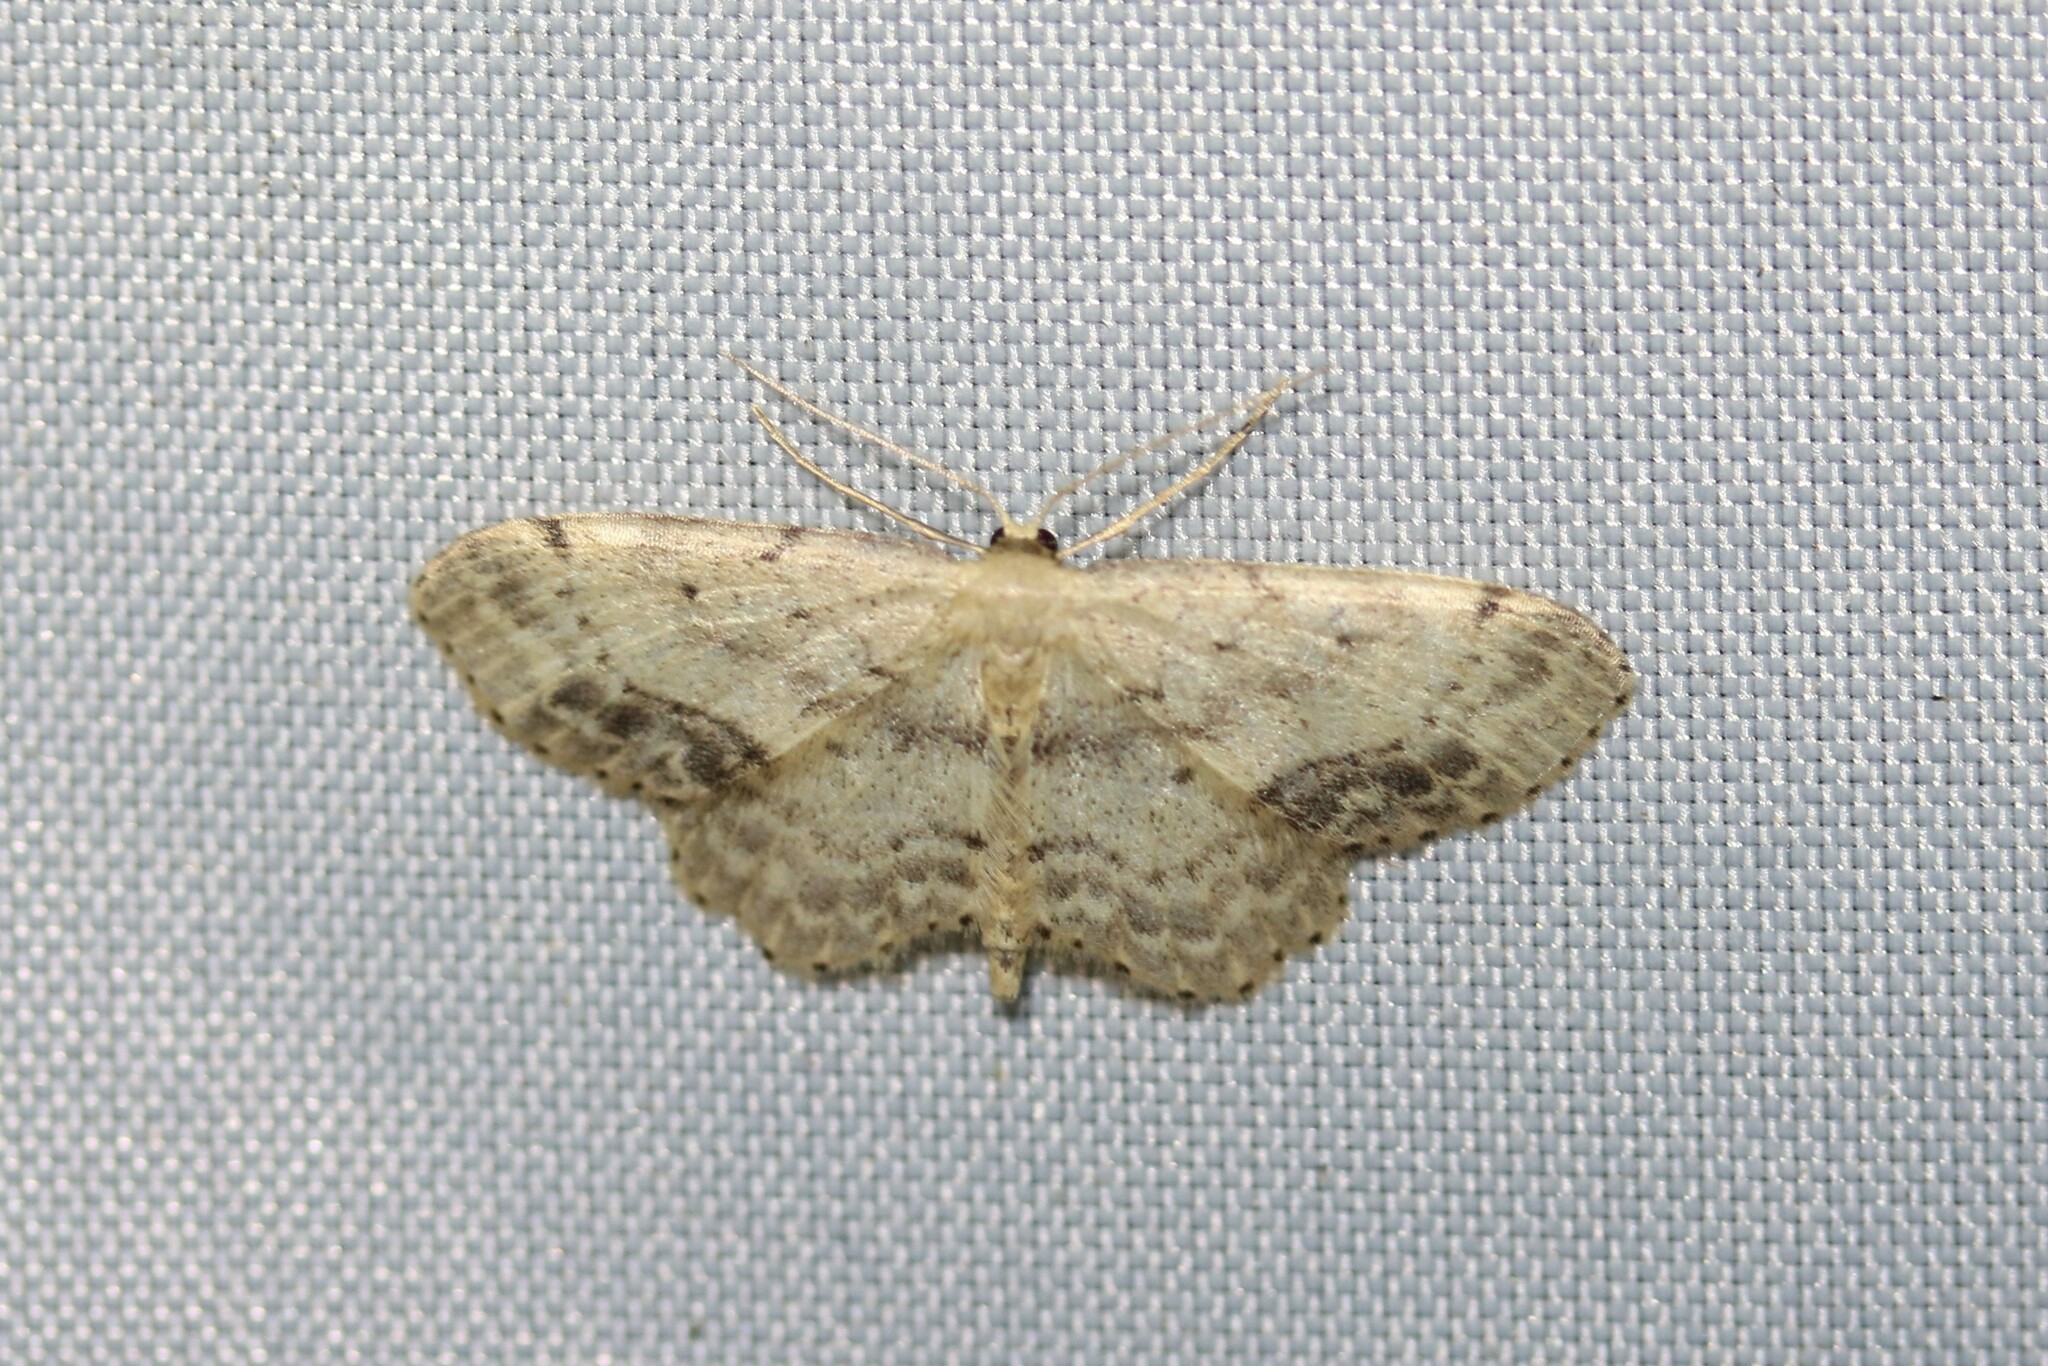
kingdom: Animalia
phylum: Arthropoda
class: Insecta
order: Lepidoptera
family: Geometridae
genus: Idaea
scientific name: Idaea dimidiata
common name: Single-dotted wave
